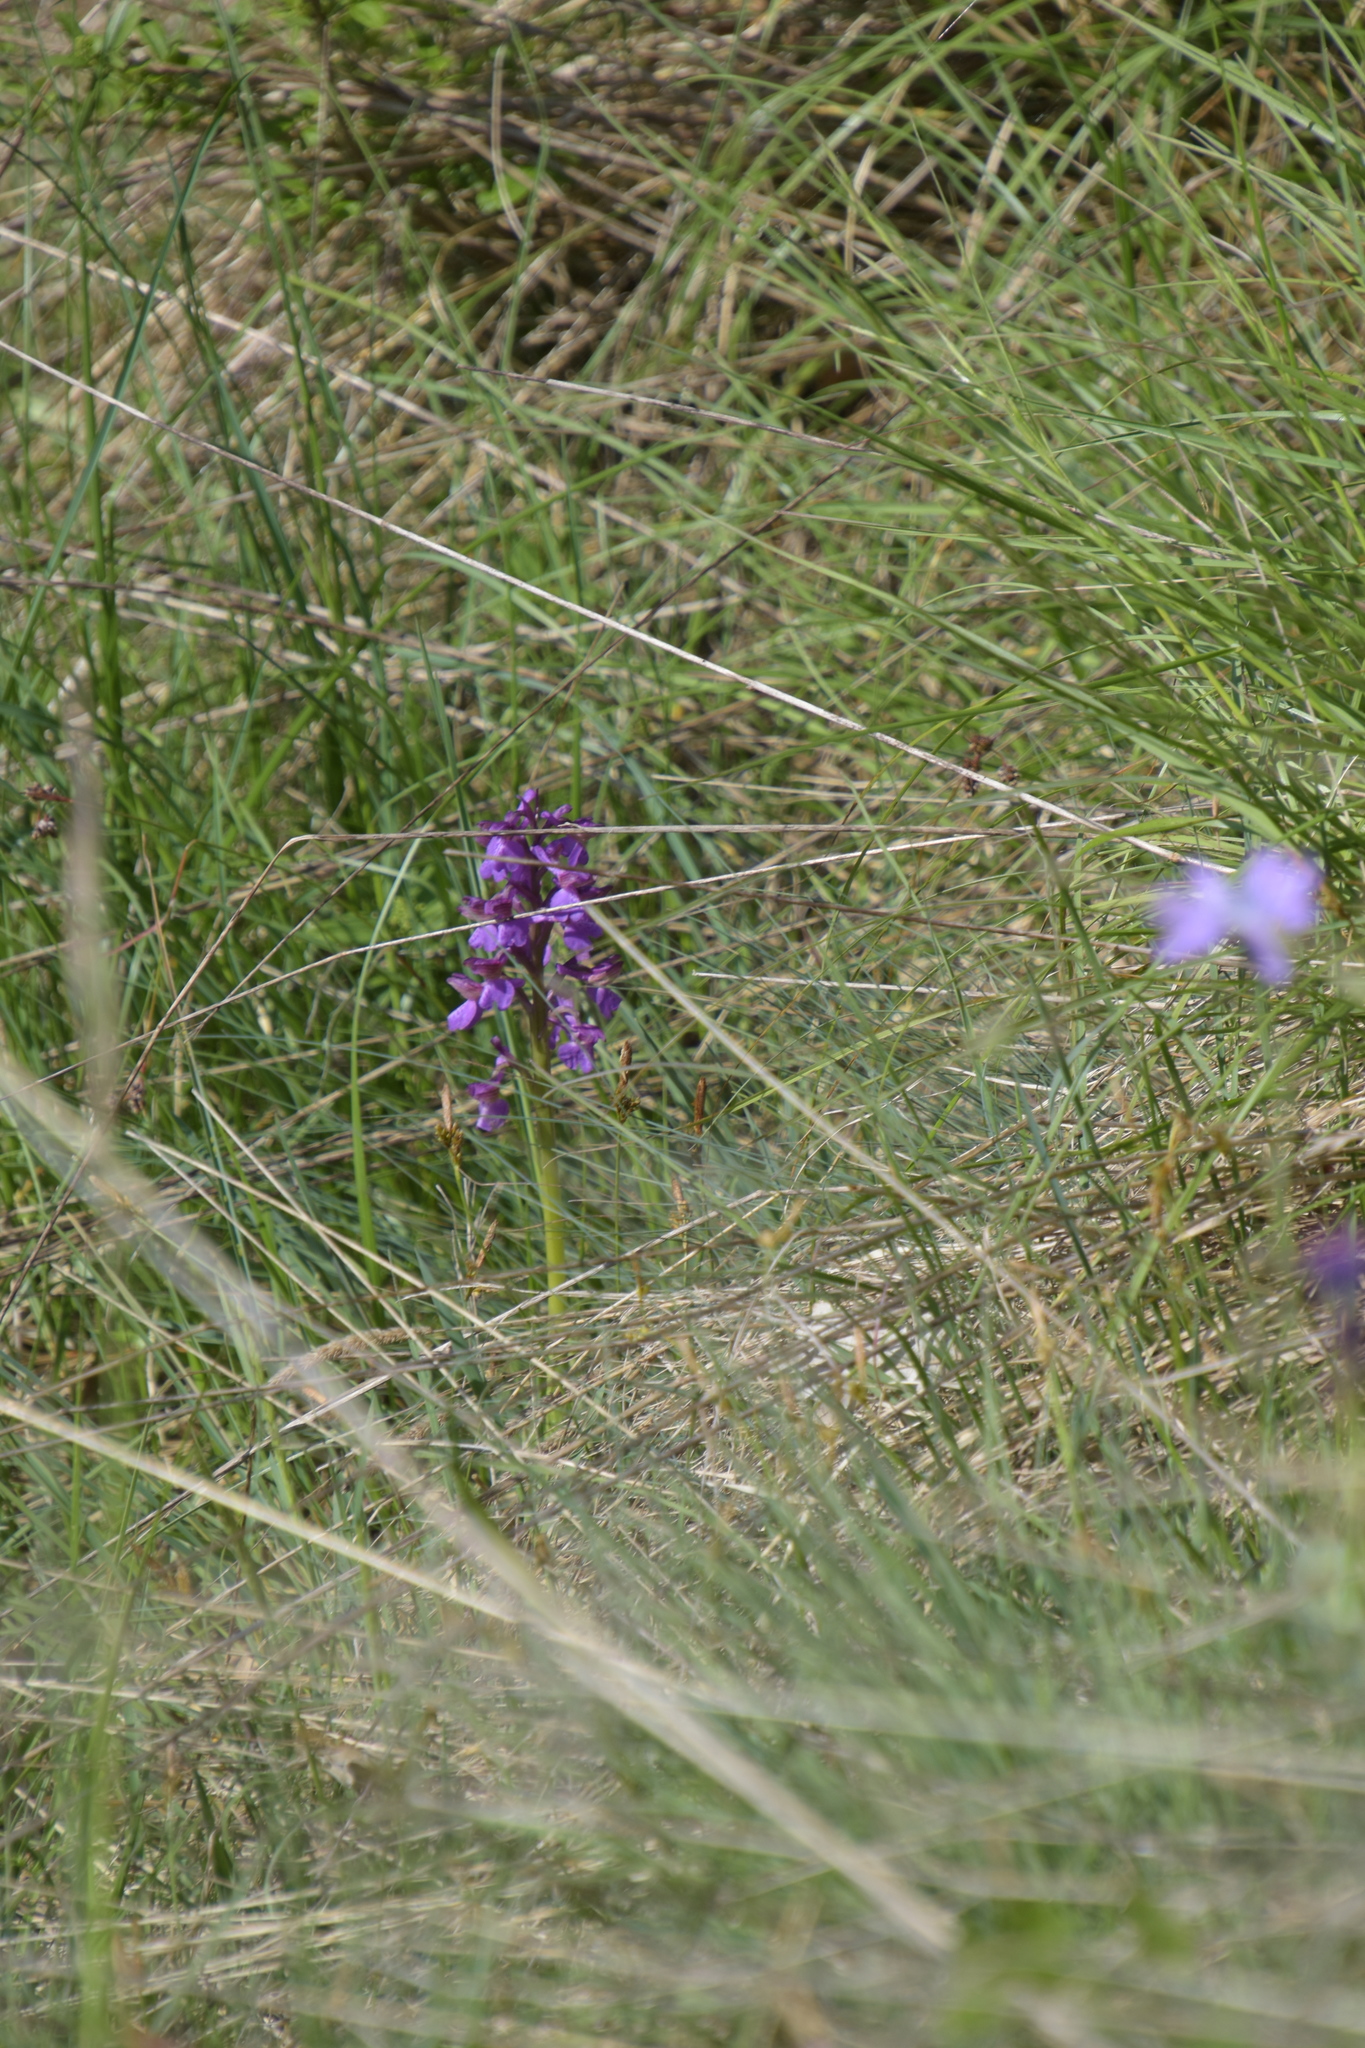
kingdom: Plantae
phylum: Tracheophyta
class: Liliopsida
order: Asparagales
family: Orchidaceae
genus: Anacamptis
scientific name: Anacamptis morio
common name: Green-winged orchid
